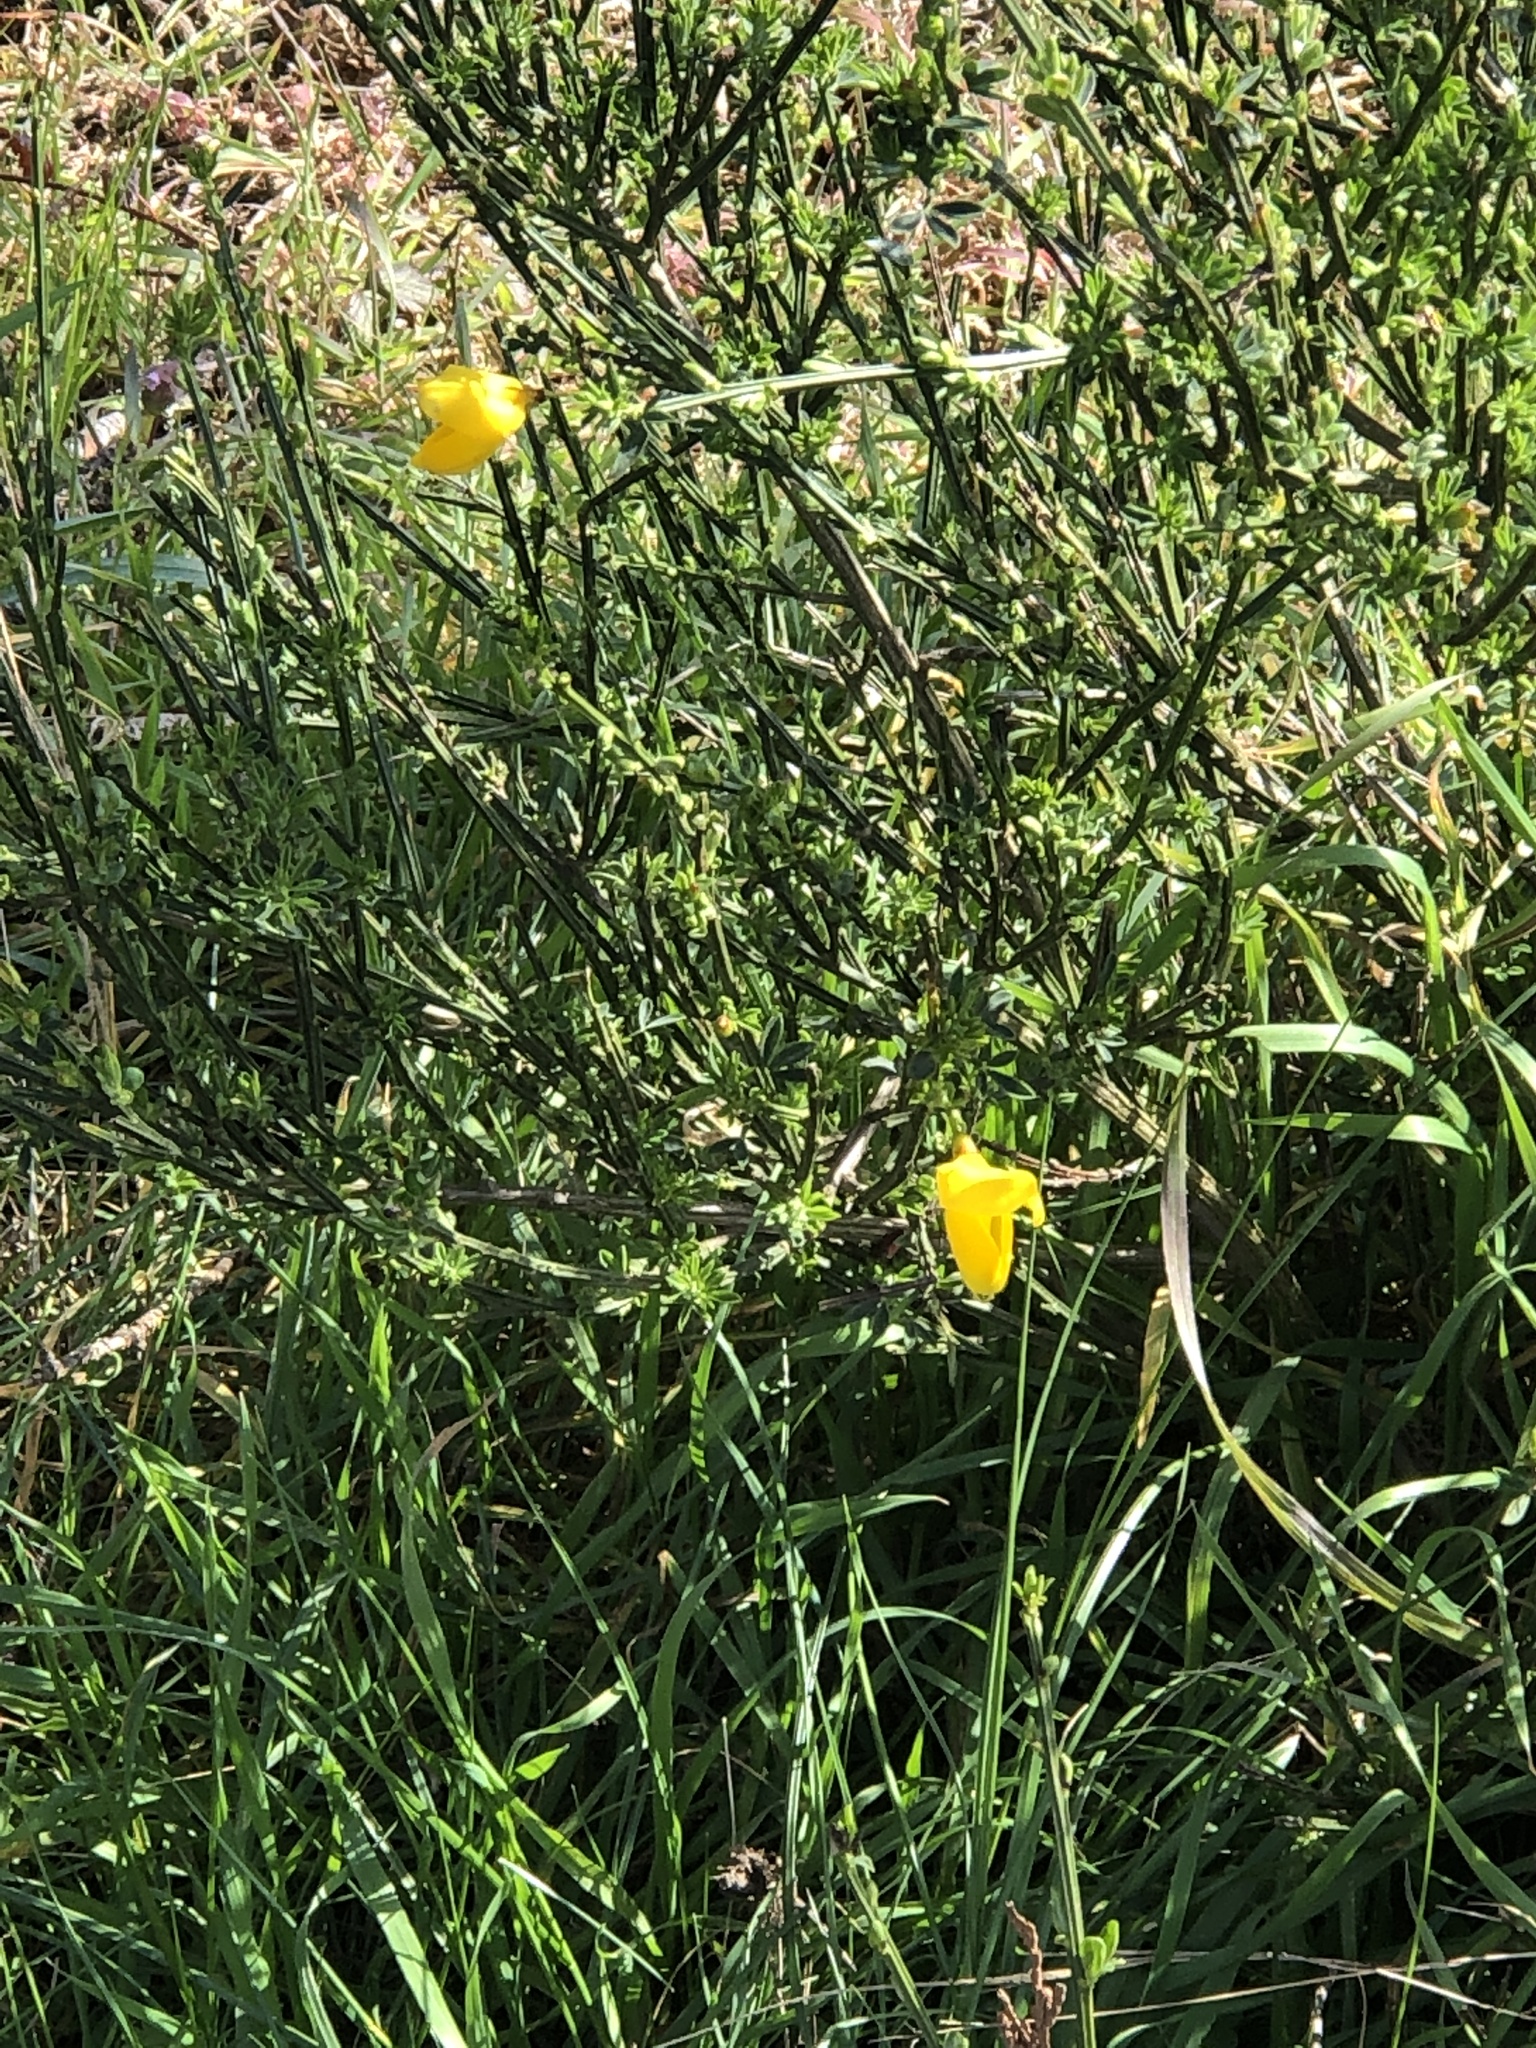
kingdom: Plantae
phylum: Tracheophyta
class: Magnoliopsida
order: Fabales
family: Fabaceae
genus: Cytisus
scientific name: Cytisus scoparius
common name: Scotch broom
